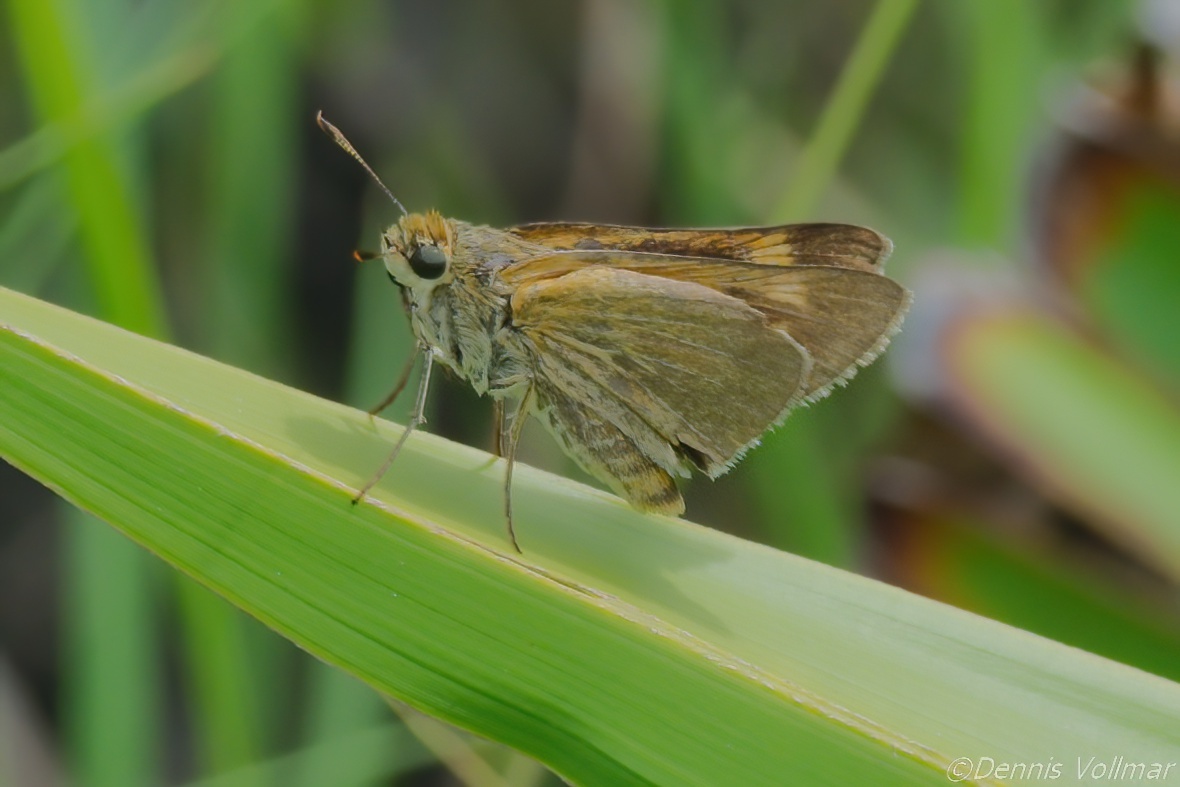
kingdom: Animalia
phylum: Arthropoda
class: Insecta
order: Lepidoptera
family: Hesperiidae
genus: Euphyes
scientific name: Euphyes berryi
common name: Berry's skipper
